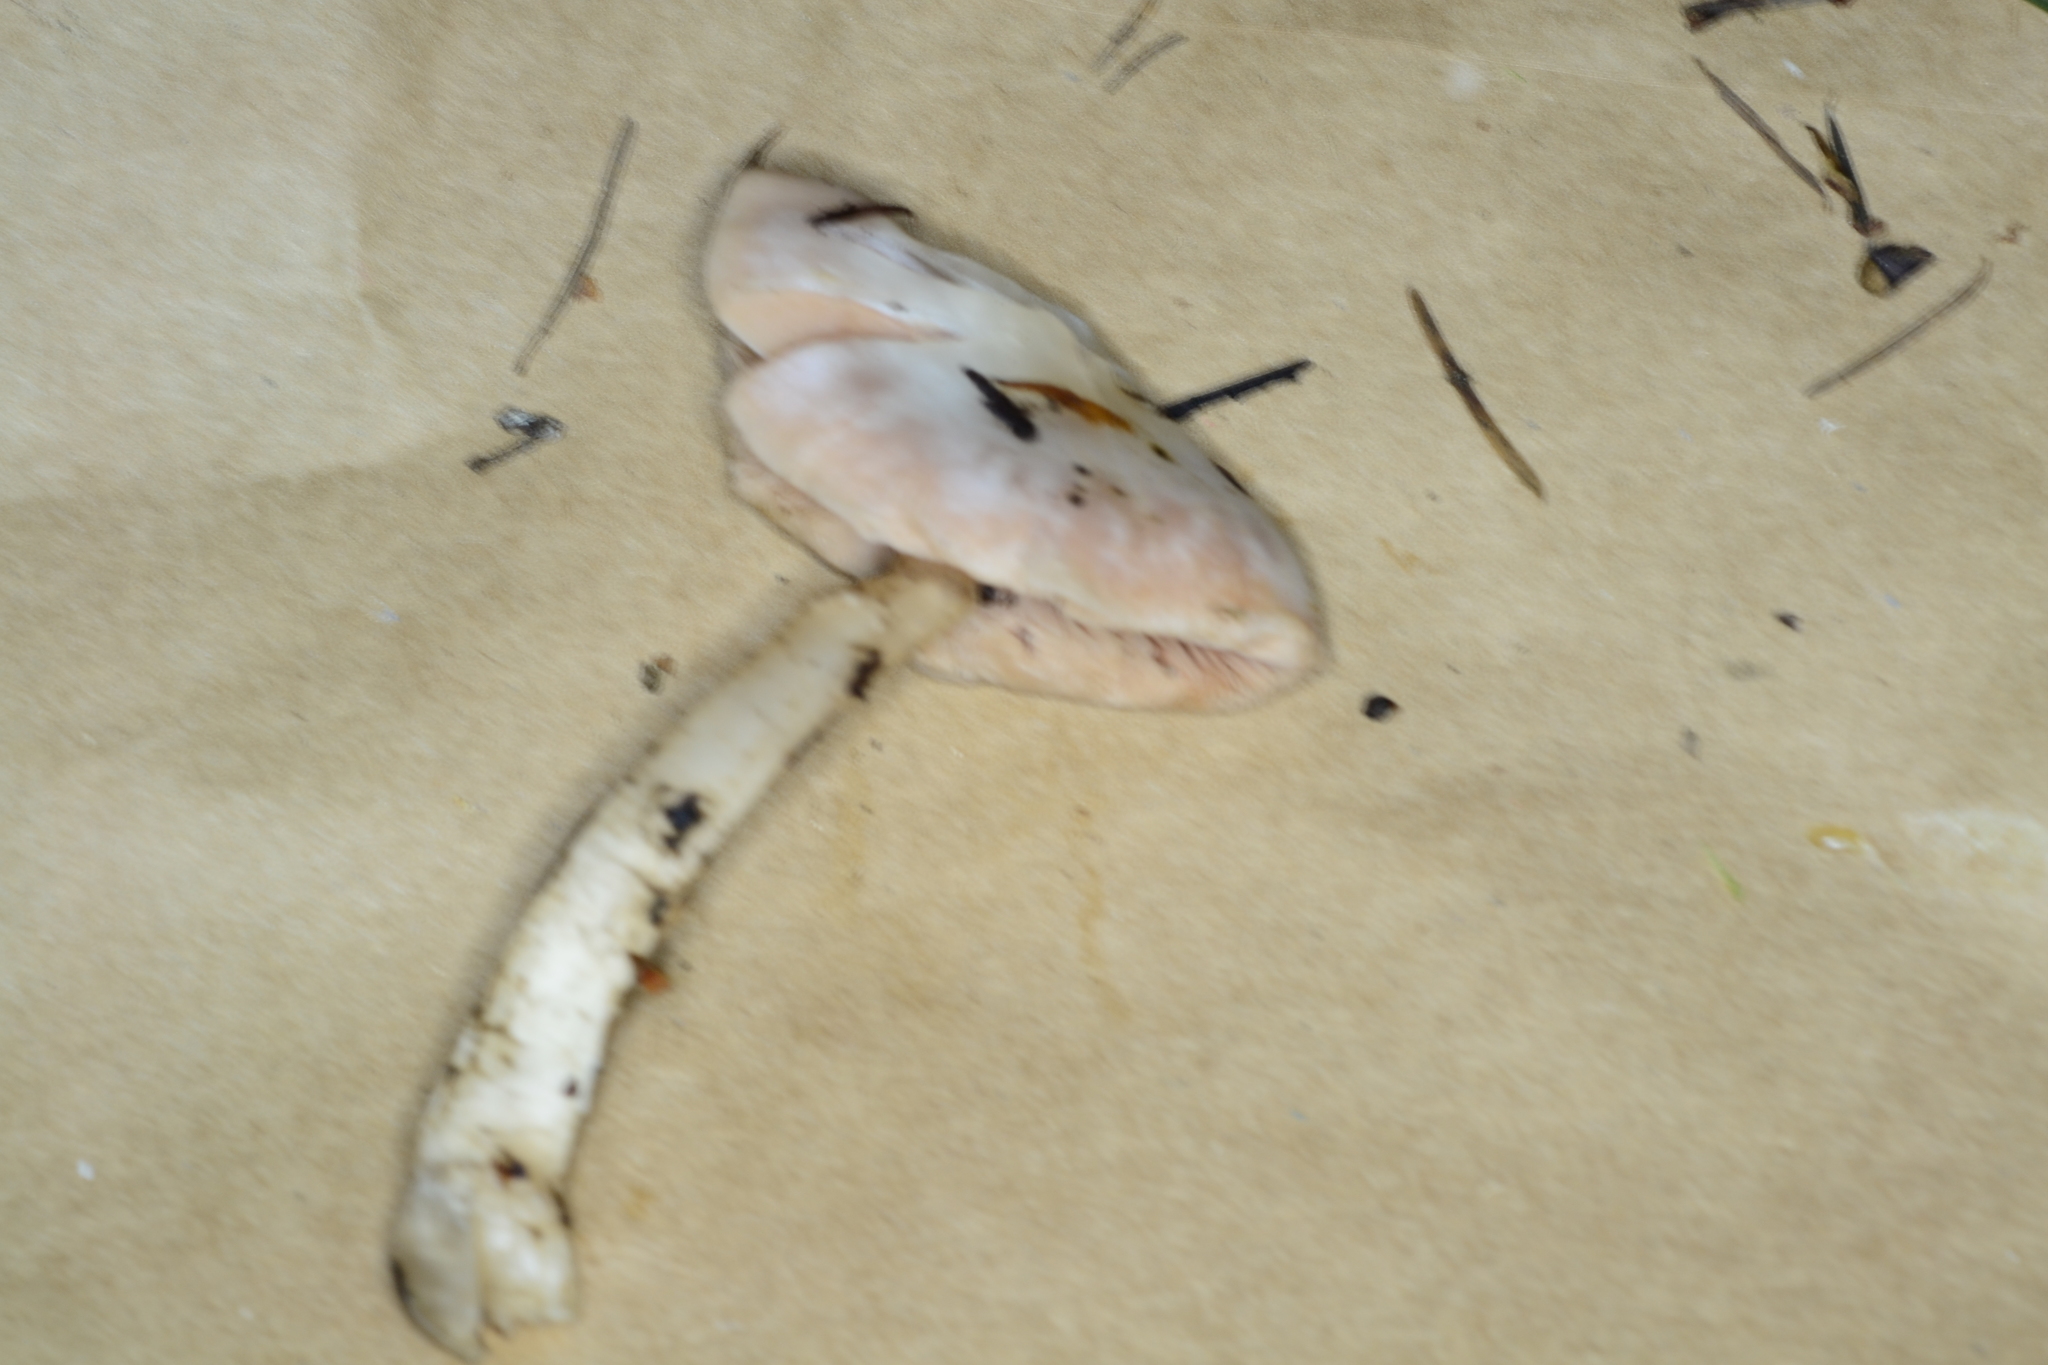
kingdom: Fungi
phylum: Basidiomycota
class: Agaricomycetes
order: Agaricales
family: Pluteaceae
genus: Pluteus
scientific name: Pluteus petasatus
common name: Scaly shield
